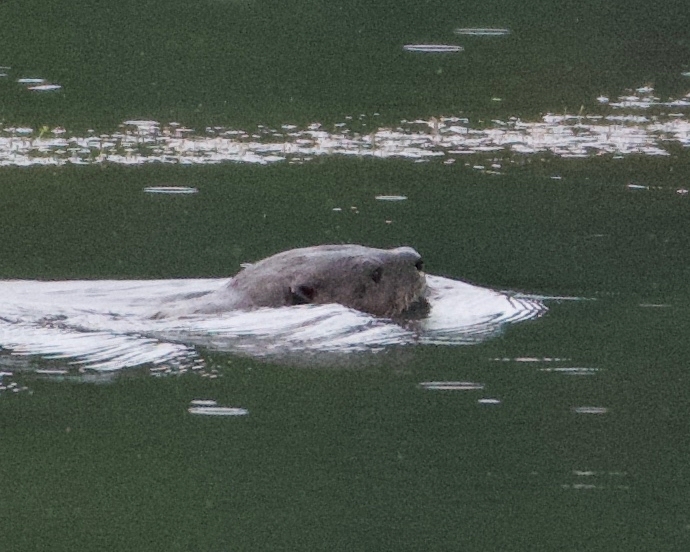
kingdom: Animalia
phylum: Chordata
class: Mammalia
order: Carnivora
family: Mustelidae
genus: Lontra
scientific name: Lontra canadensis
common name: North american river otter
